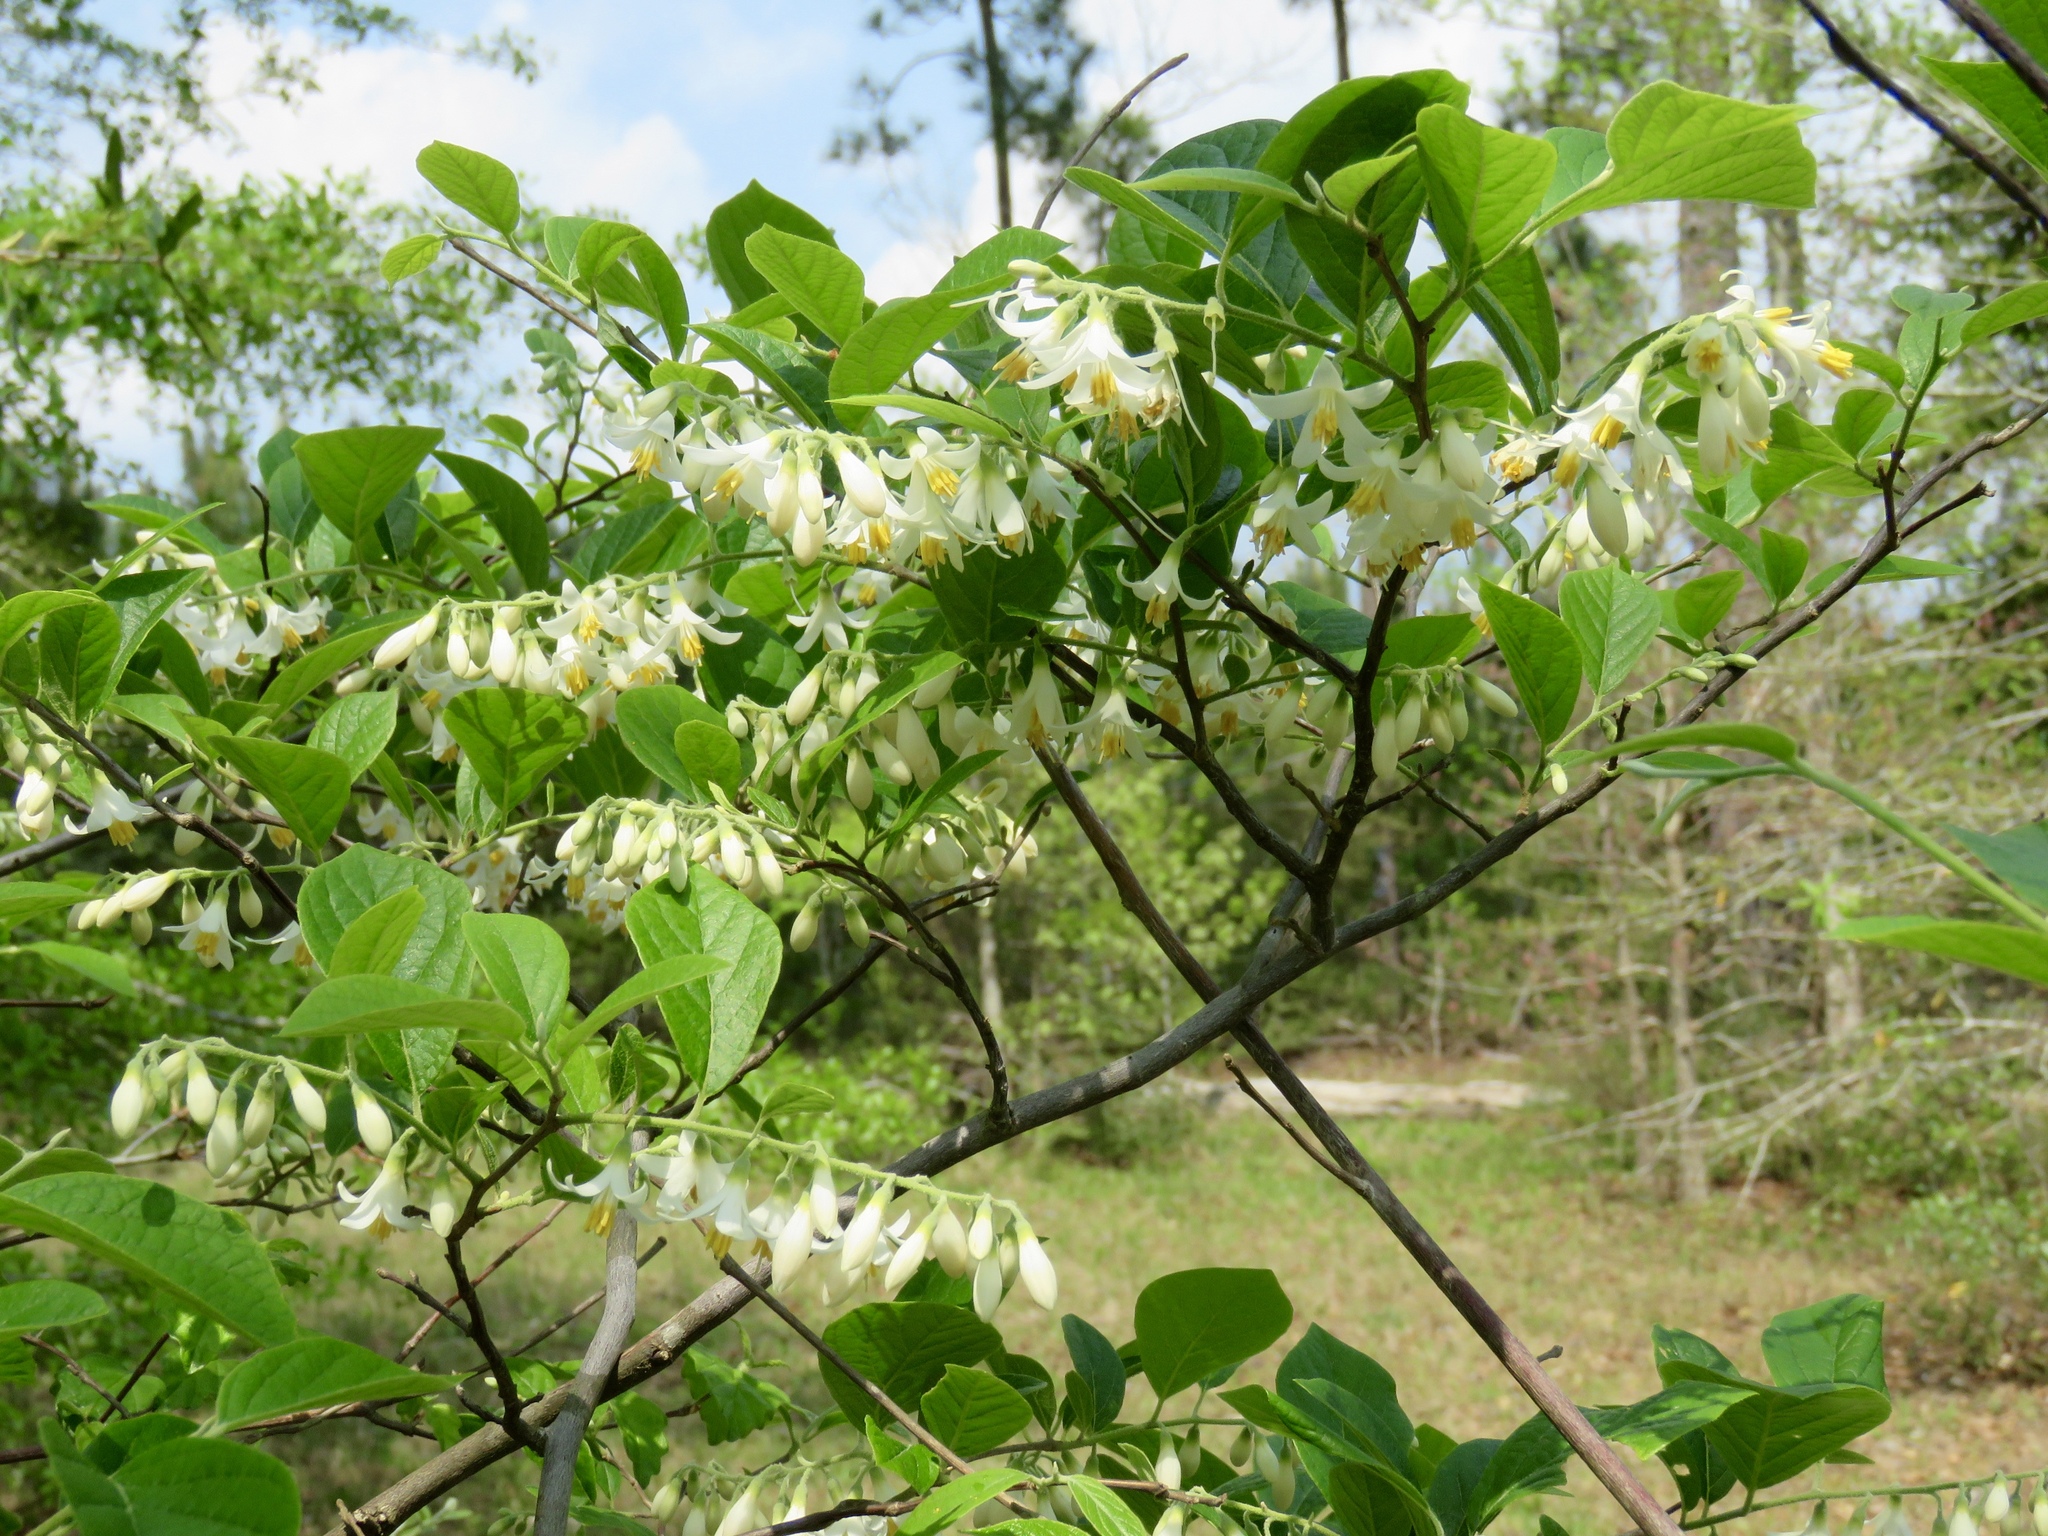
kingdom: Plantae
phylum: Tracheophyta
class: Magnoliopsida
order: Ericales
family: Styracaceae
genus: Styrax
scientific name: Styrax grandifolius
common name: Big-leaf snowbell
